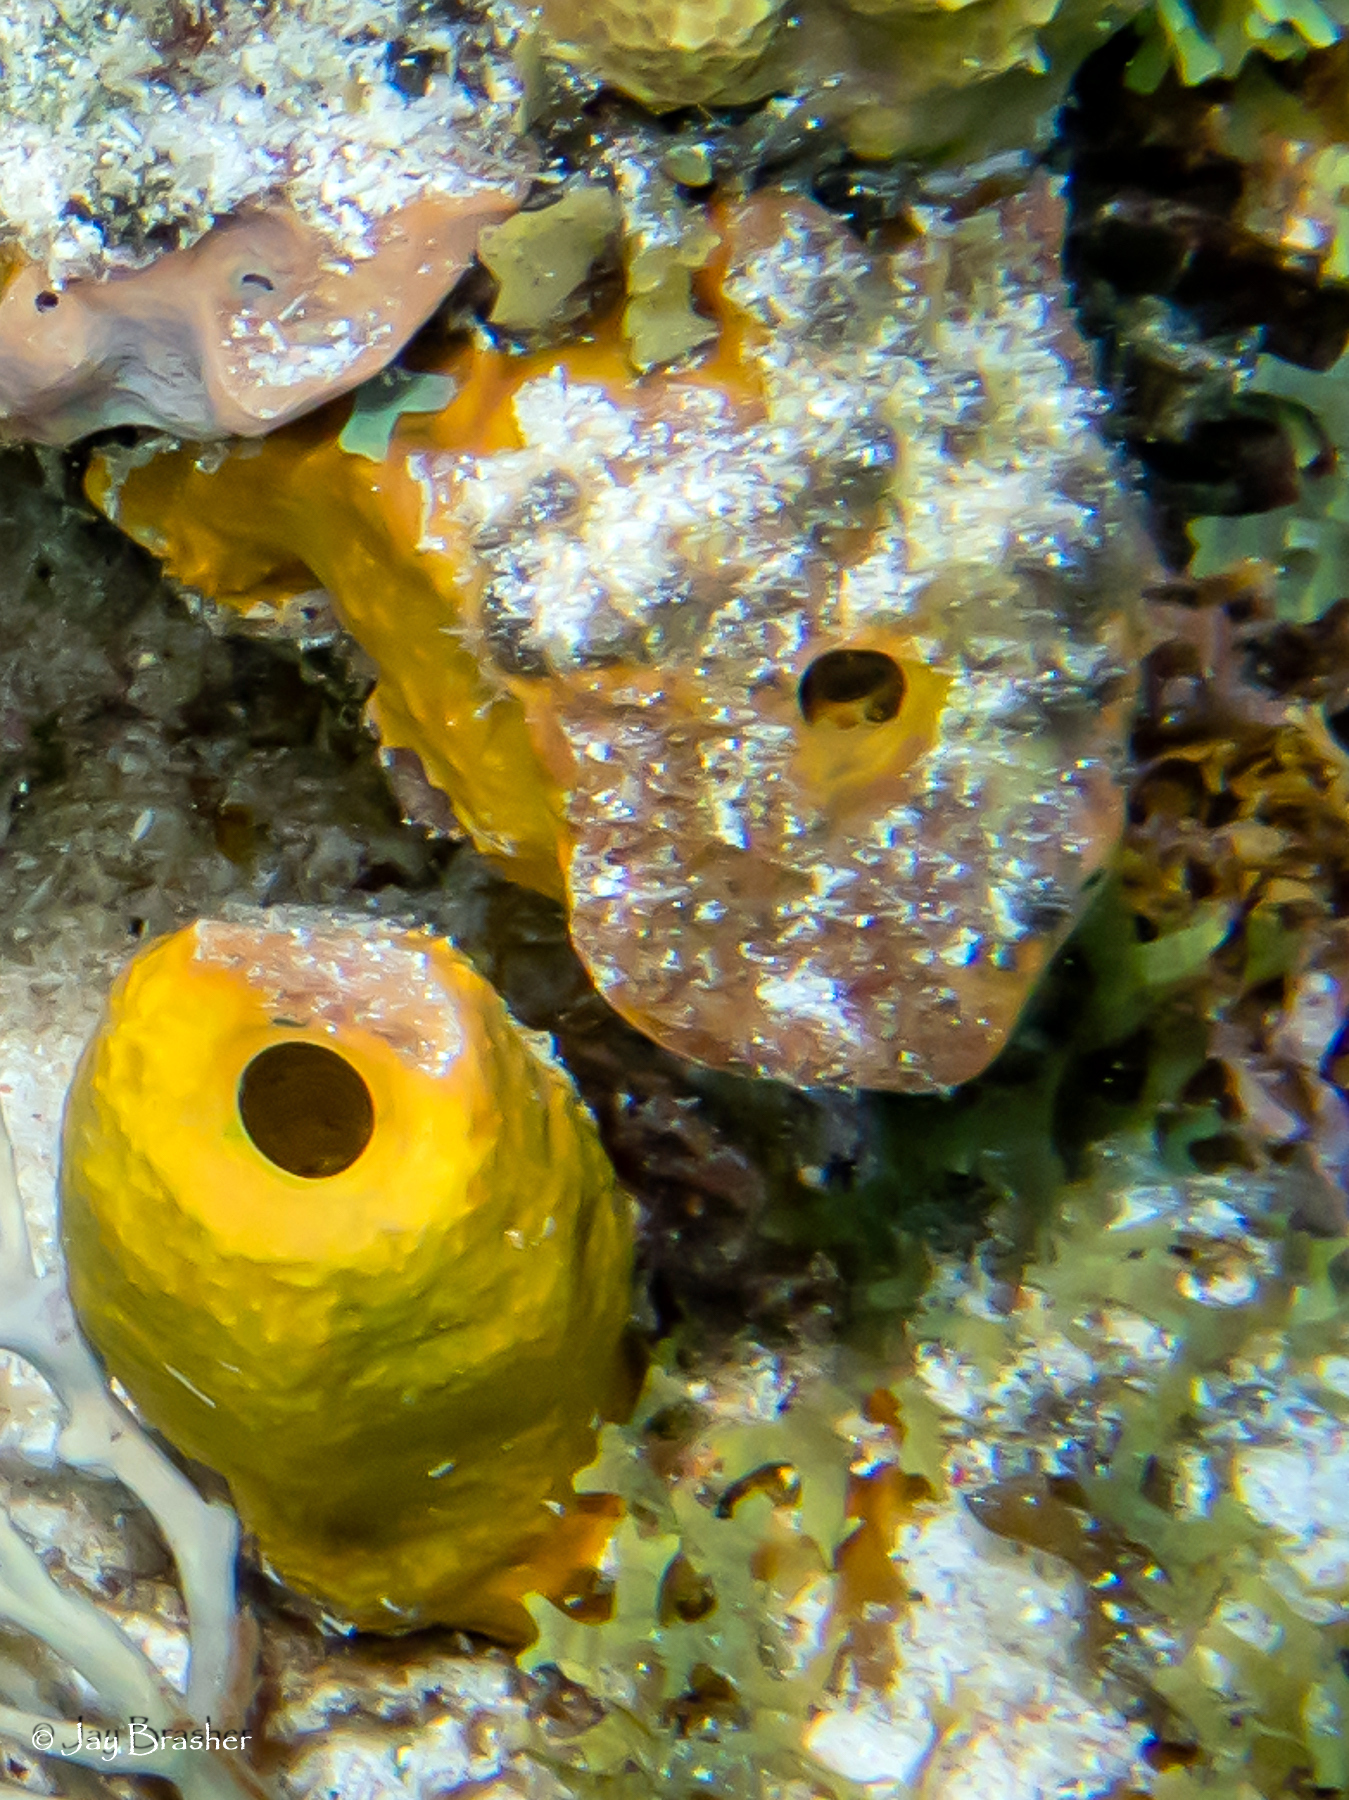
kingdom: Animalia
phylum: Porifera
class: Demospongiae
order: Verongiida
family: Aplysinidae
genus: Aplysina
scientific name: Aplysina fistularis
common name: Candle sponge
